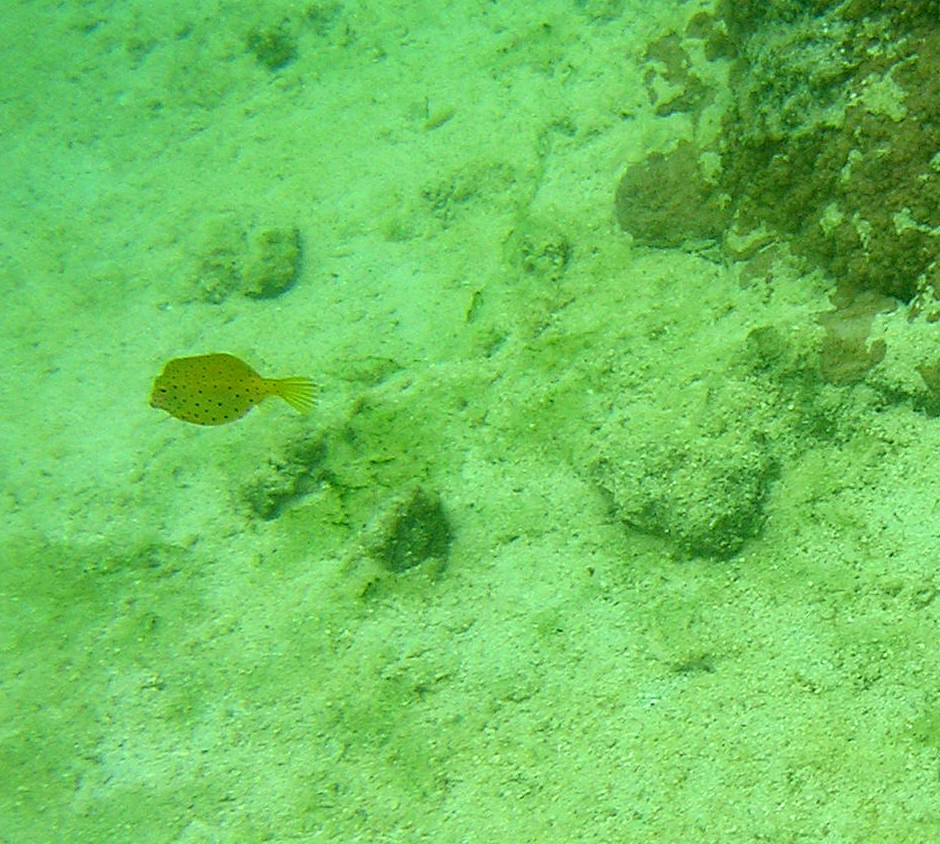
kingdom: Animalia
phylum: Chordata
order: Tetraodontiformes
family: Ostraciidae
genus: Ostracion
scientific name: Ostracion cubicus
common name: Cube trunkfish
